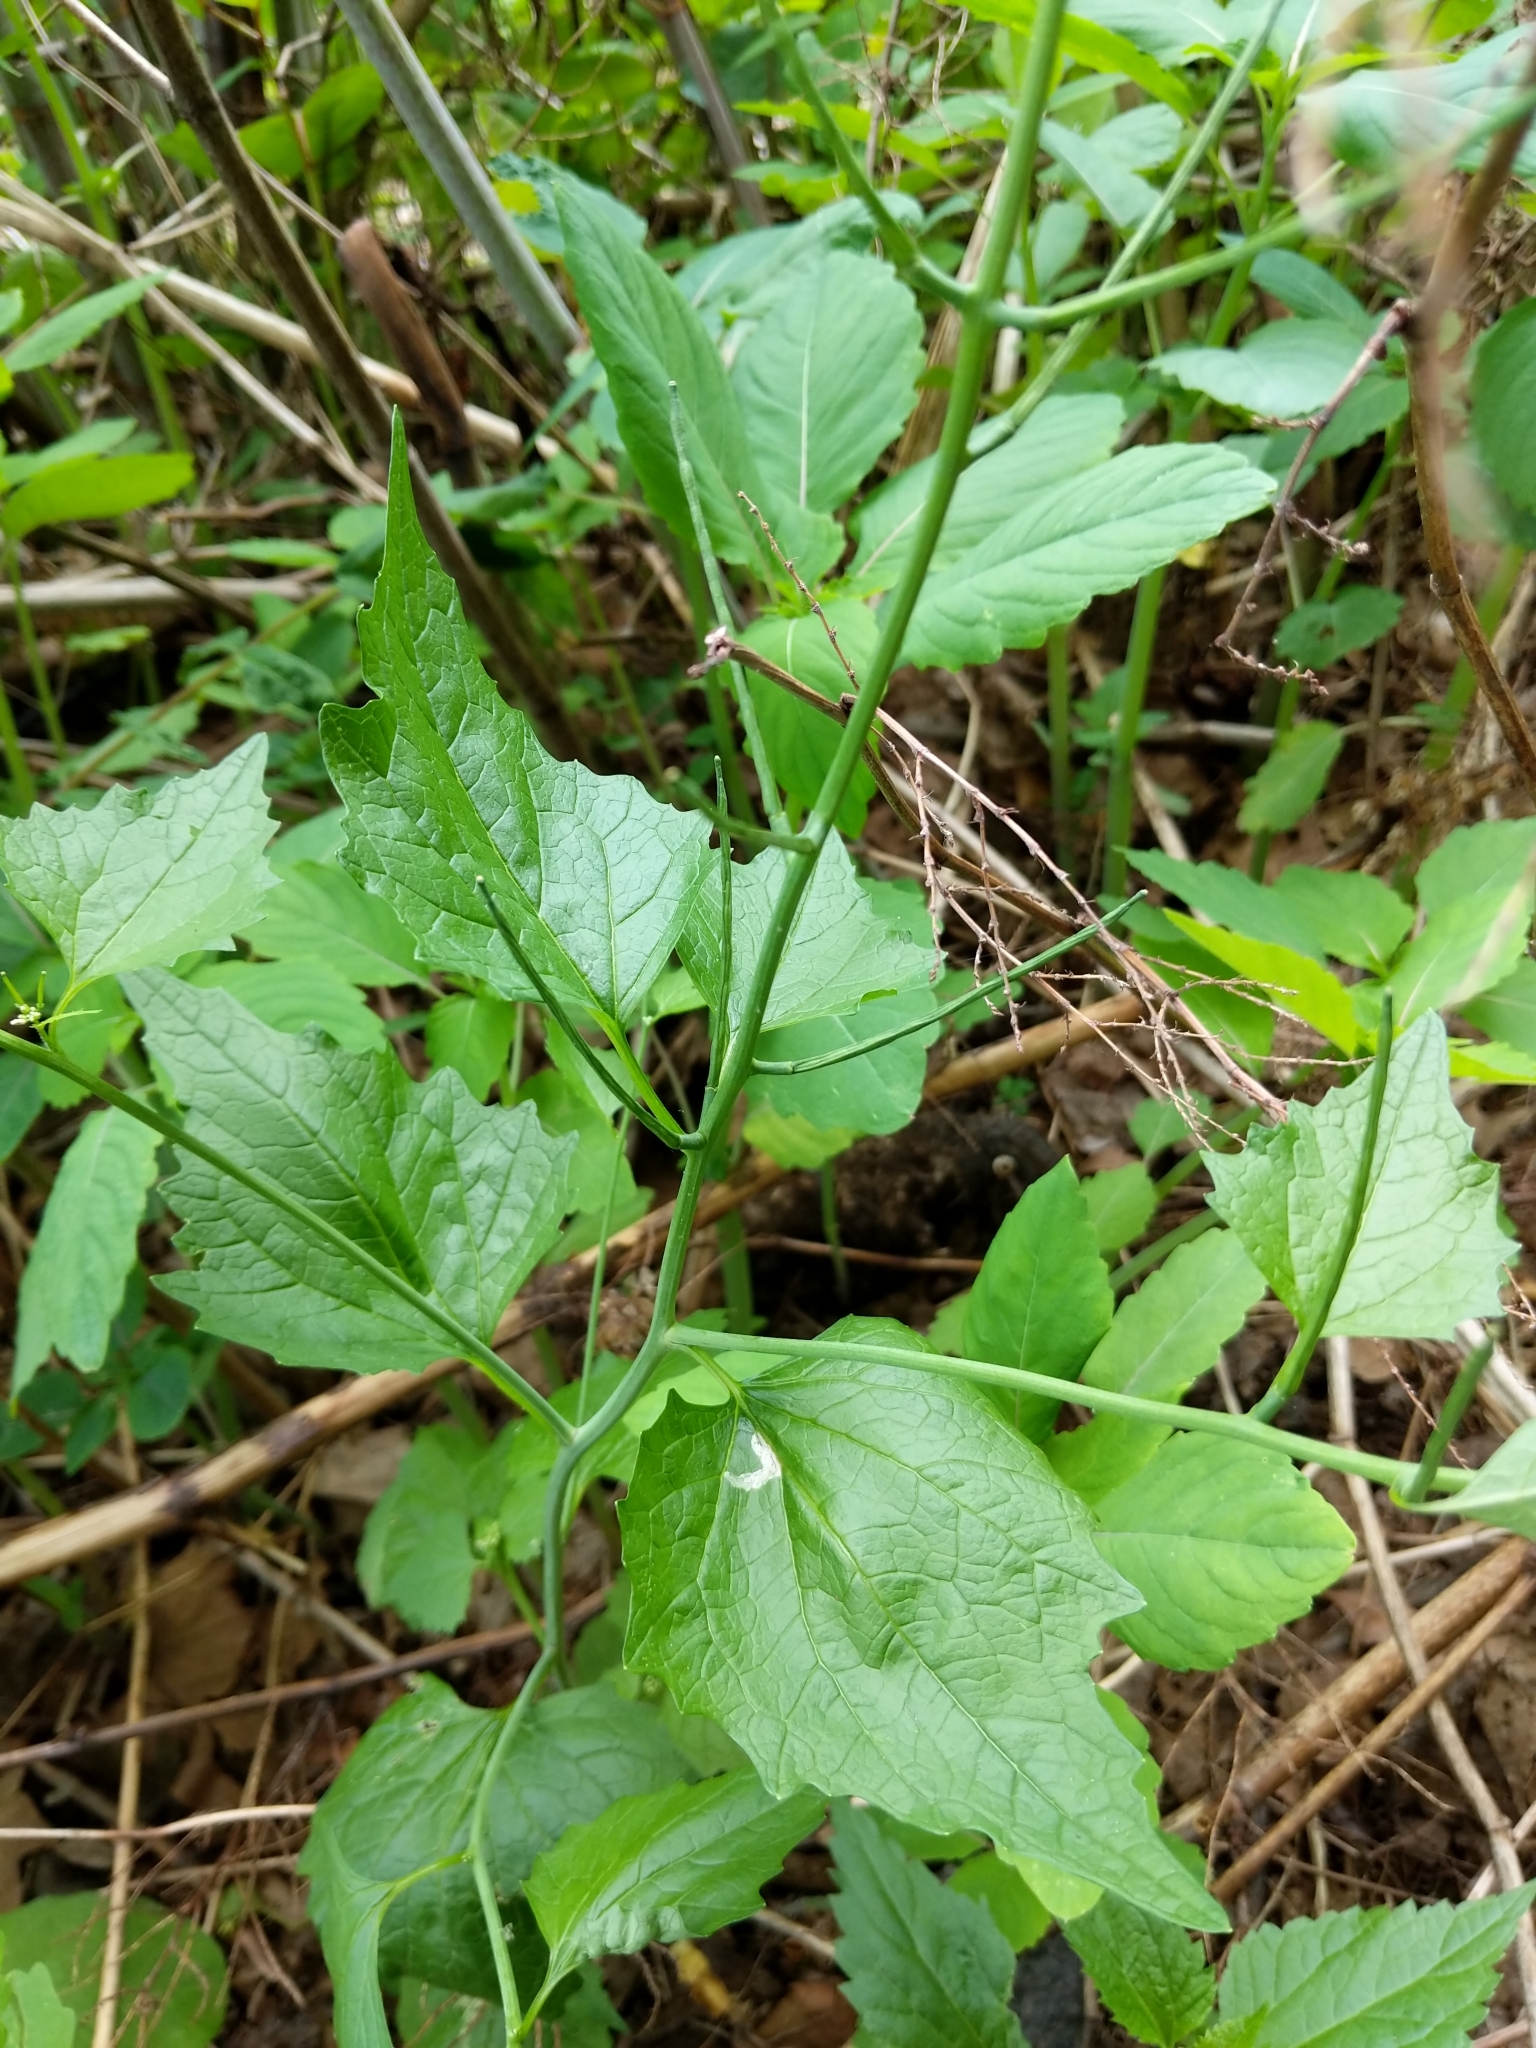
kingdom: Plantae
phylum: Tracheophyta
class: Magnoliopsida
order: Brassicales
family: Brassicaceae
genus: Alliaria
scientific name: Alliaria petiolata
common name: Garlic mustard
